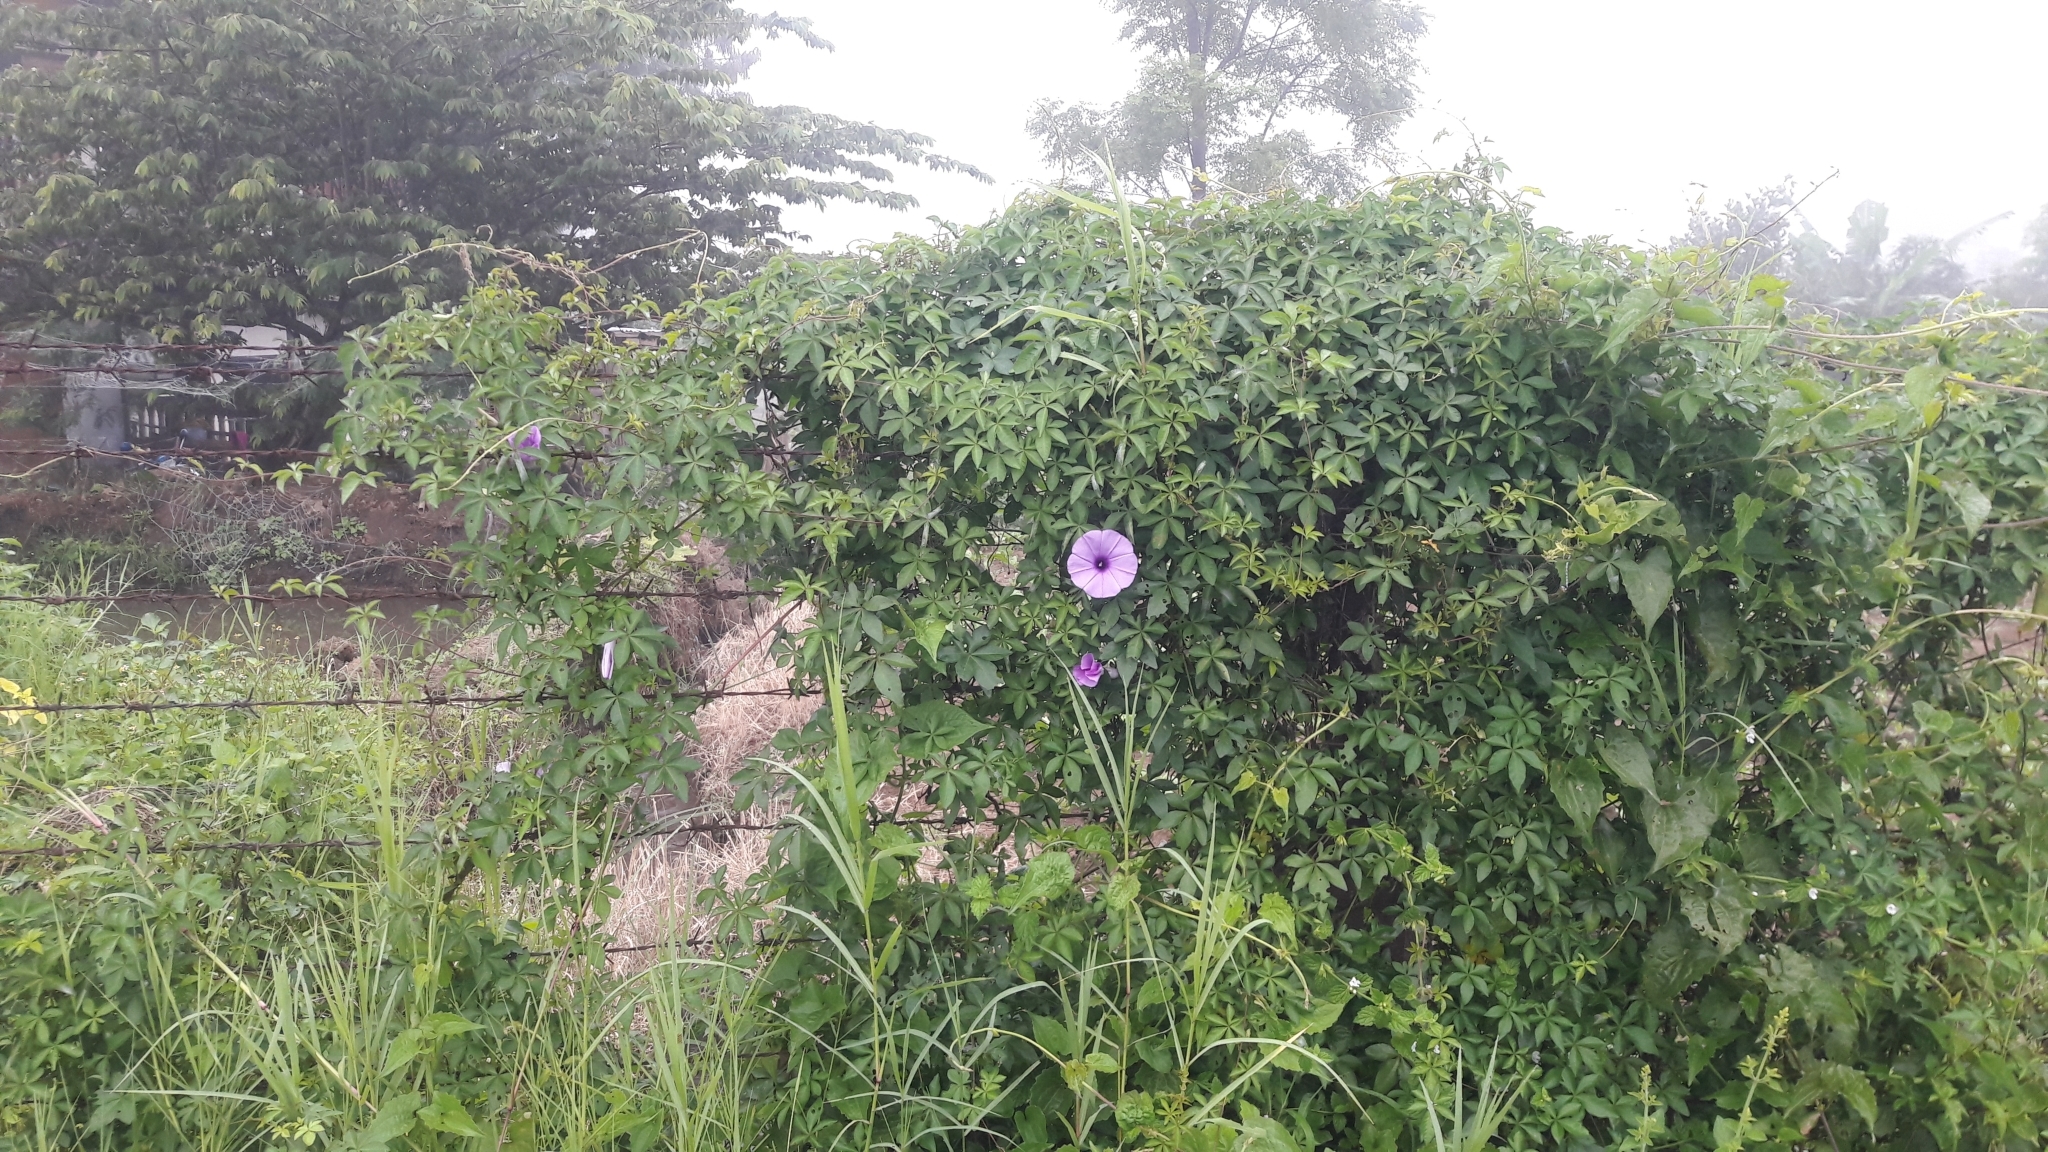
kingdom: Plantae
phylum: Tracheophyta
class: Magnoliopsida
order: Solanales
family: Convolvulaceae
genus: Ipomoea
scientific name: Ipomoea cairica
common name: Mile a minute vine
